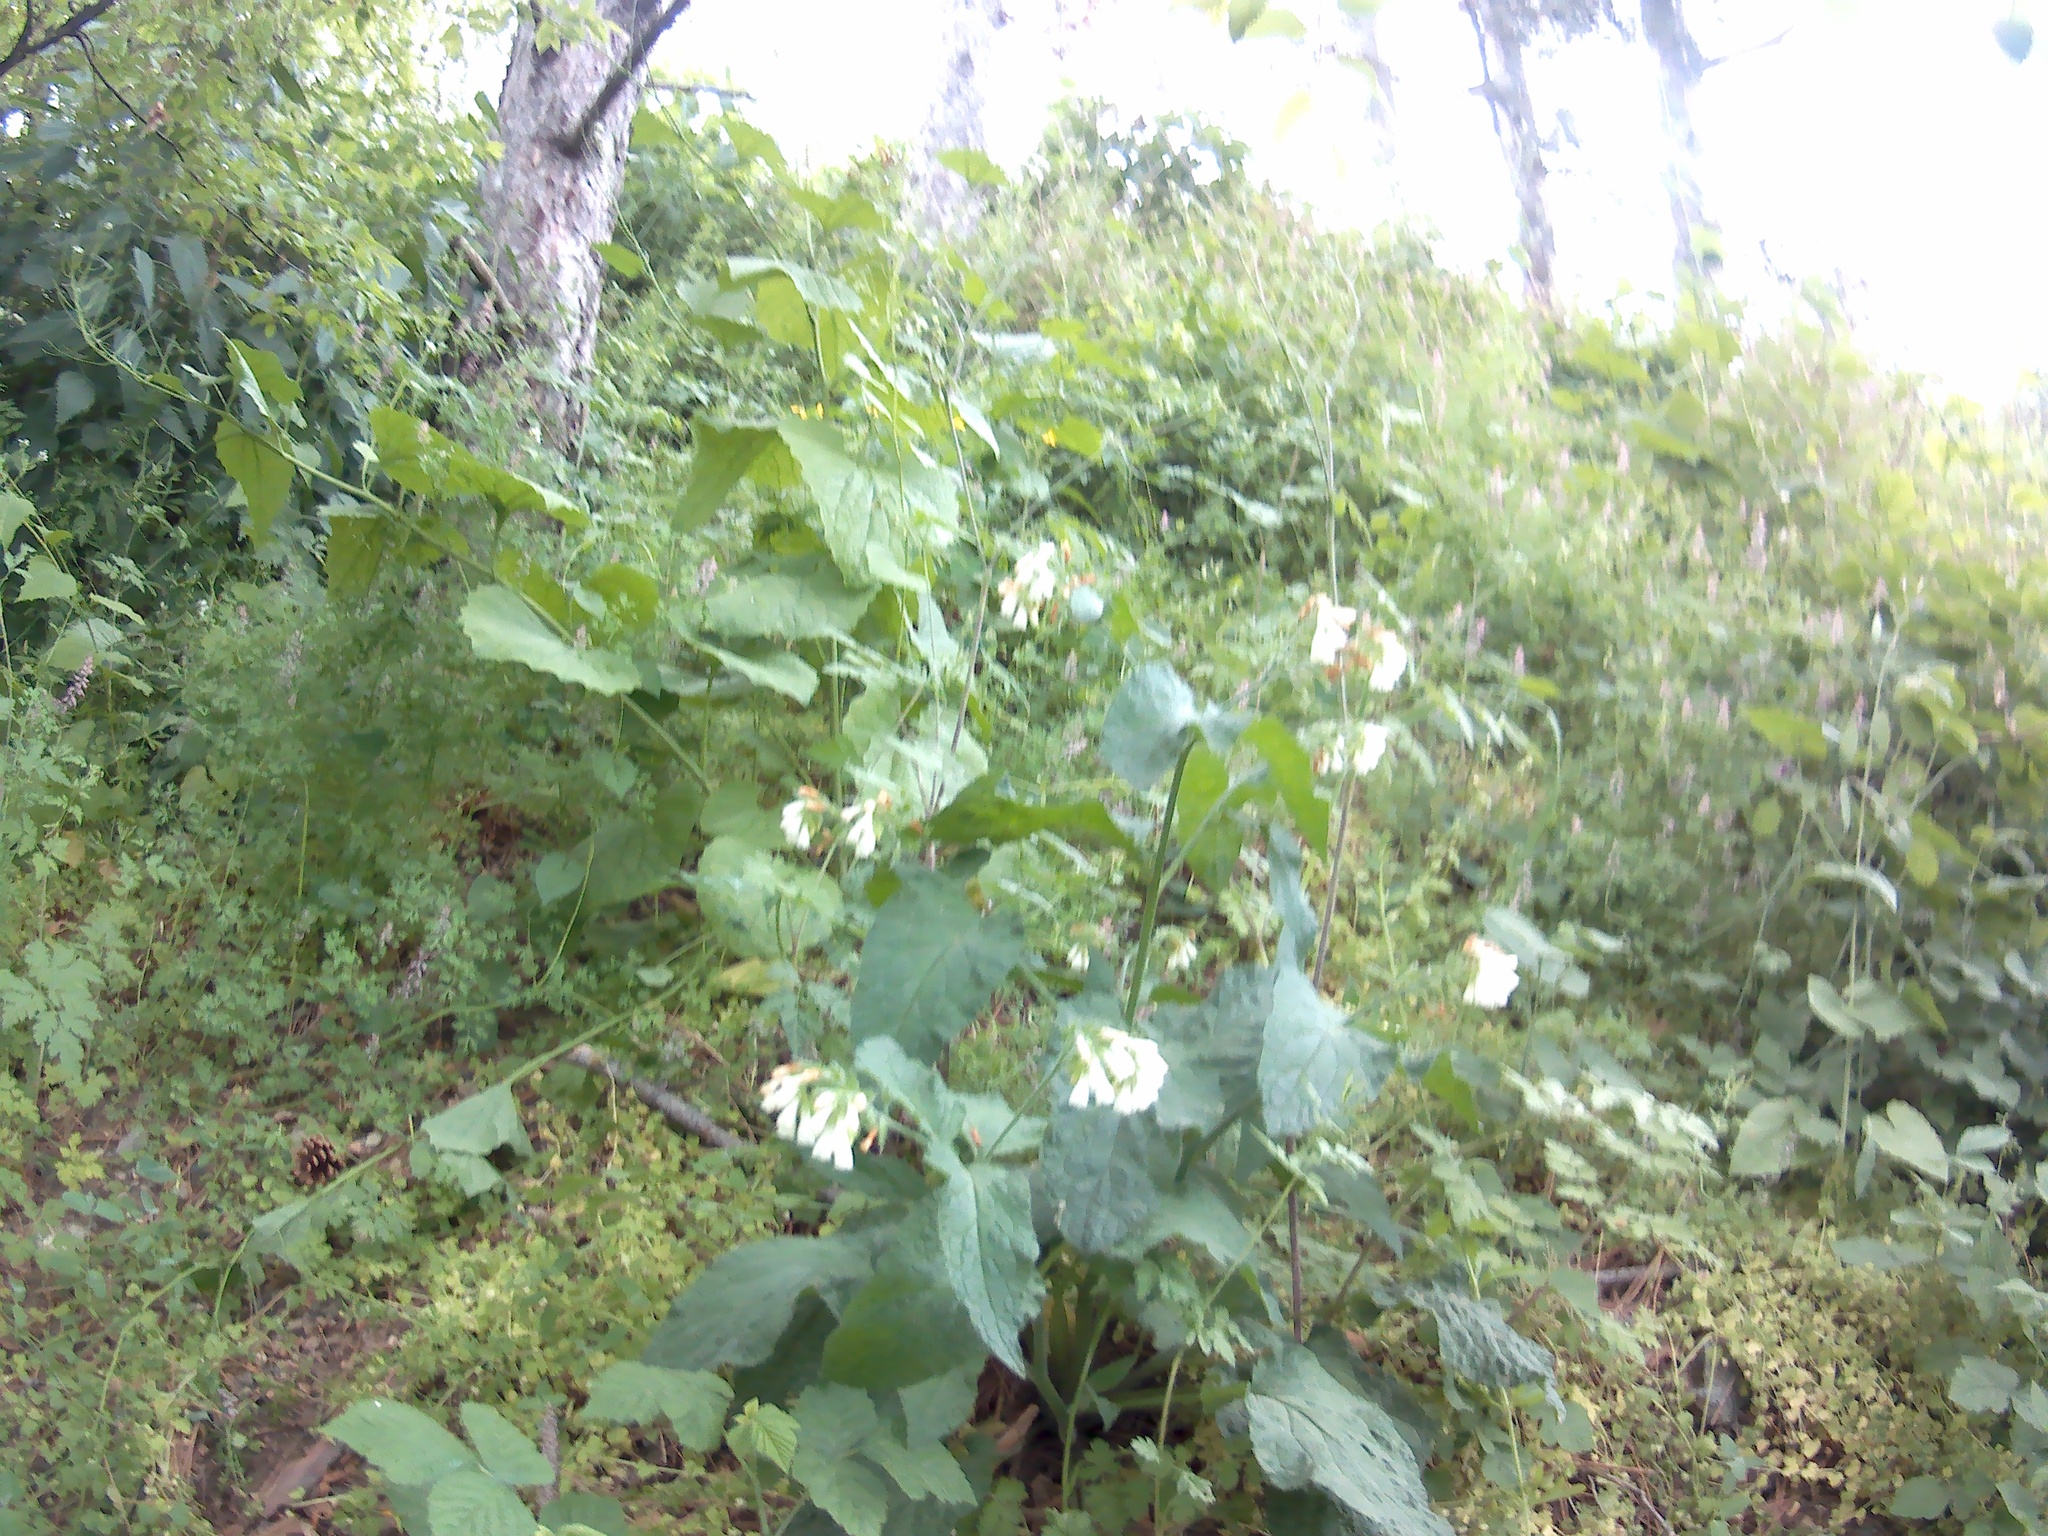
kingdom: Plantae
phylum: Tracheophyta
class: Magnoliopsida
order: Boraginales
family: Boraginaceae
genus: Symphytum
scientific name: Symphytum tauricum
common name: Crimean comfrey
